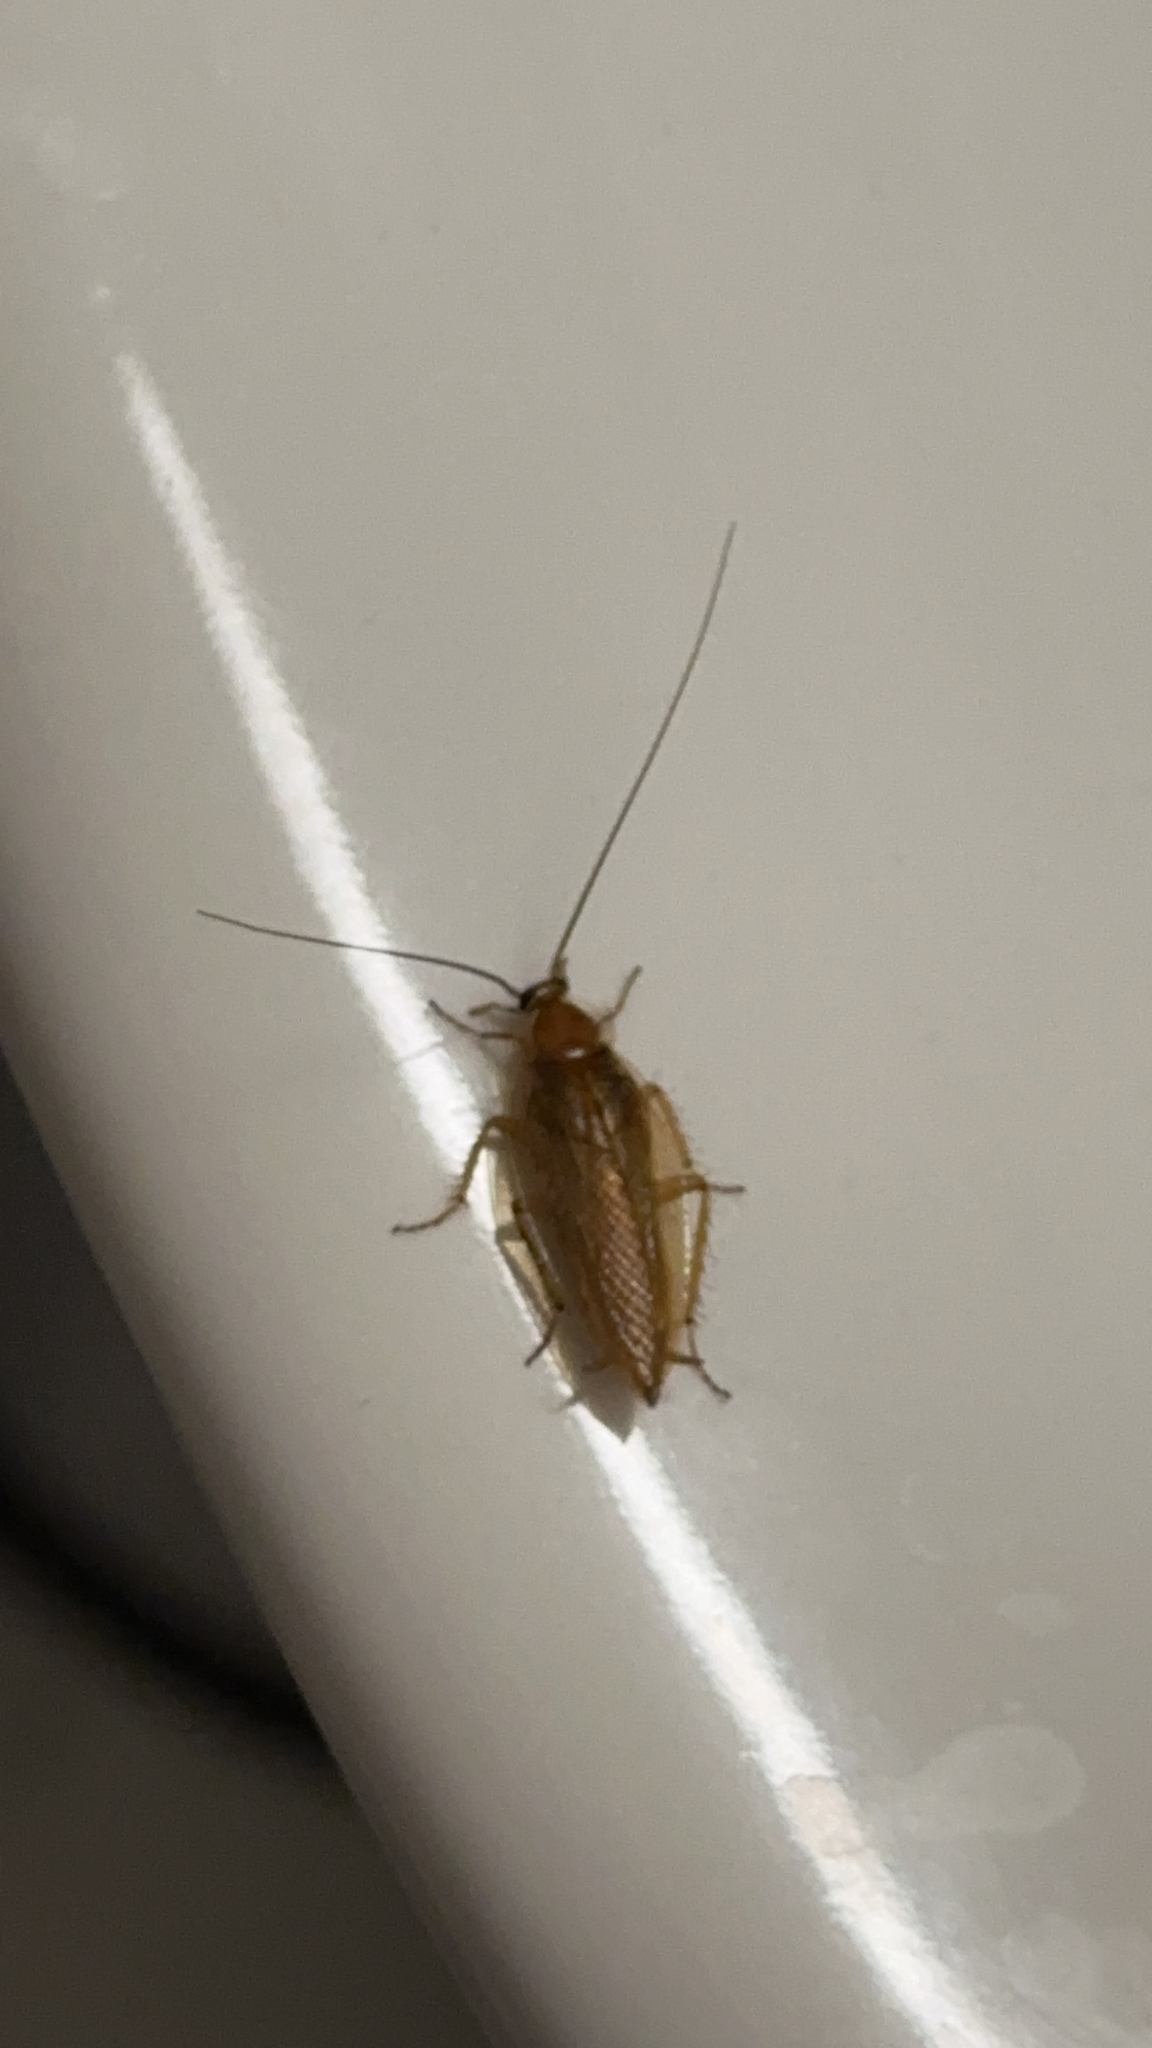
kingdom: Animalia
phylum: Arthropoda
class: Insecta
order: Blattodea
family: Ectobiidae
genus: Ectobius
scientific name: Ectobius vittiventris
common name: Garden cockroach
